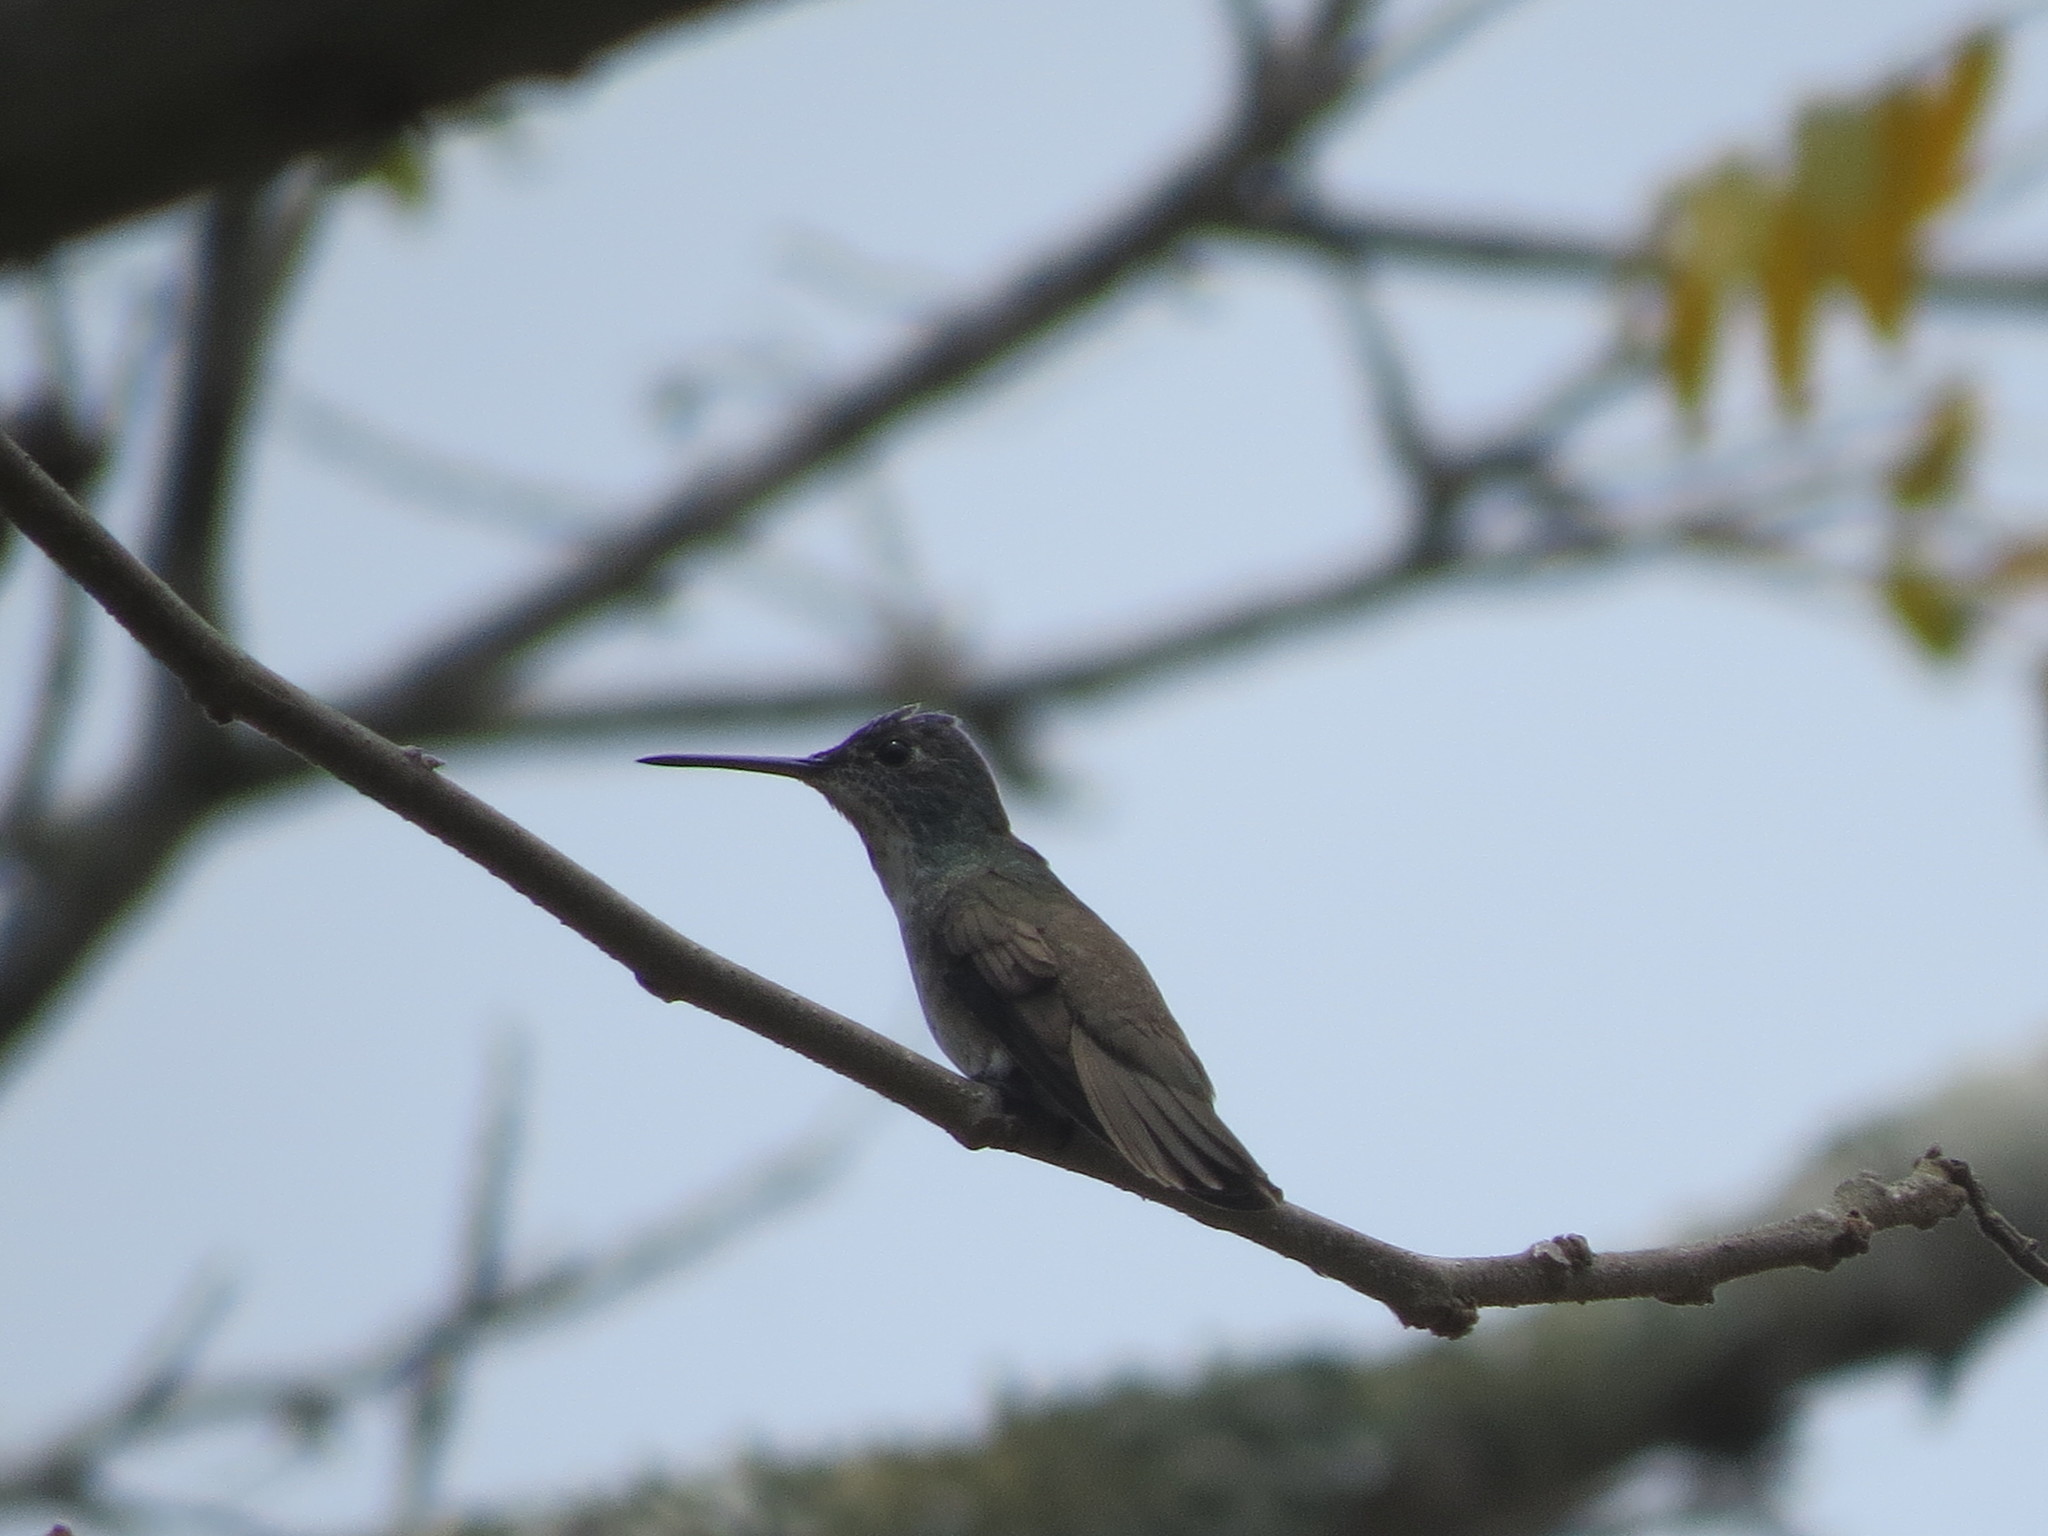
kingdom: Animalia
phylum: Chordata
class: Aves
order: Apodiformes
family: Trochilidae
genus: Saucerottia
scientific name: Saucerottia cyanocephala
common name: Azure-crowned hummingbird
